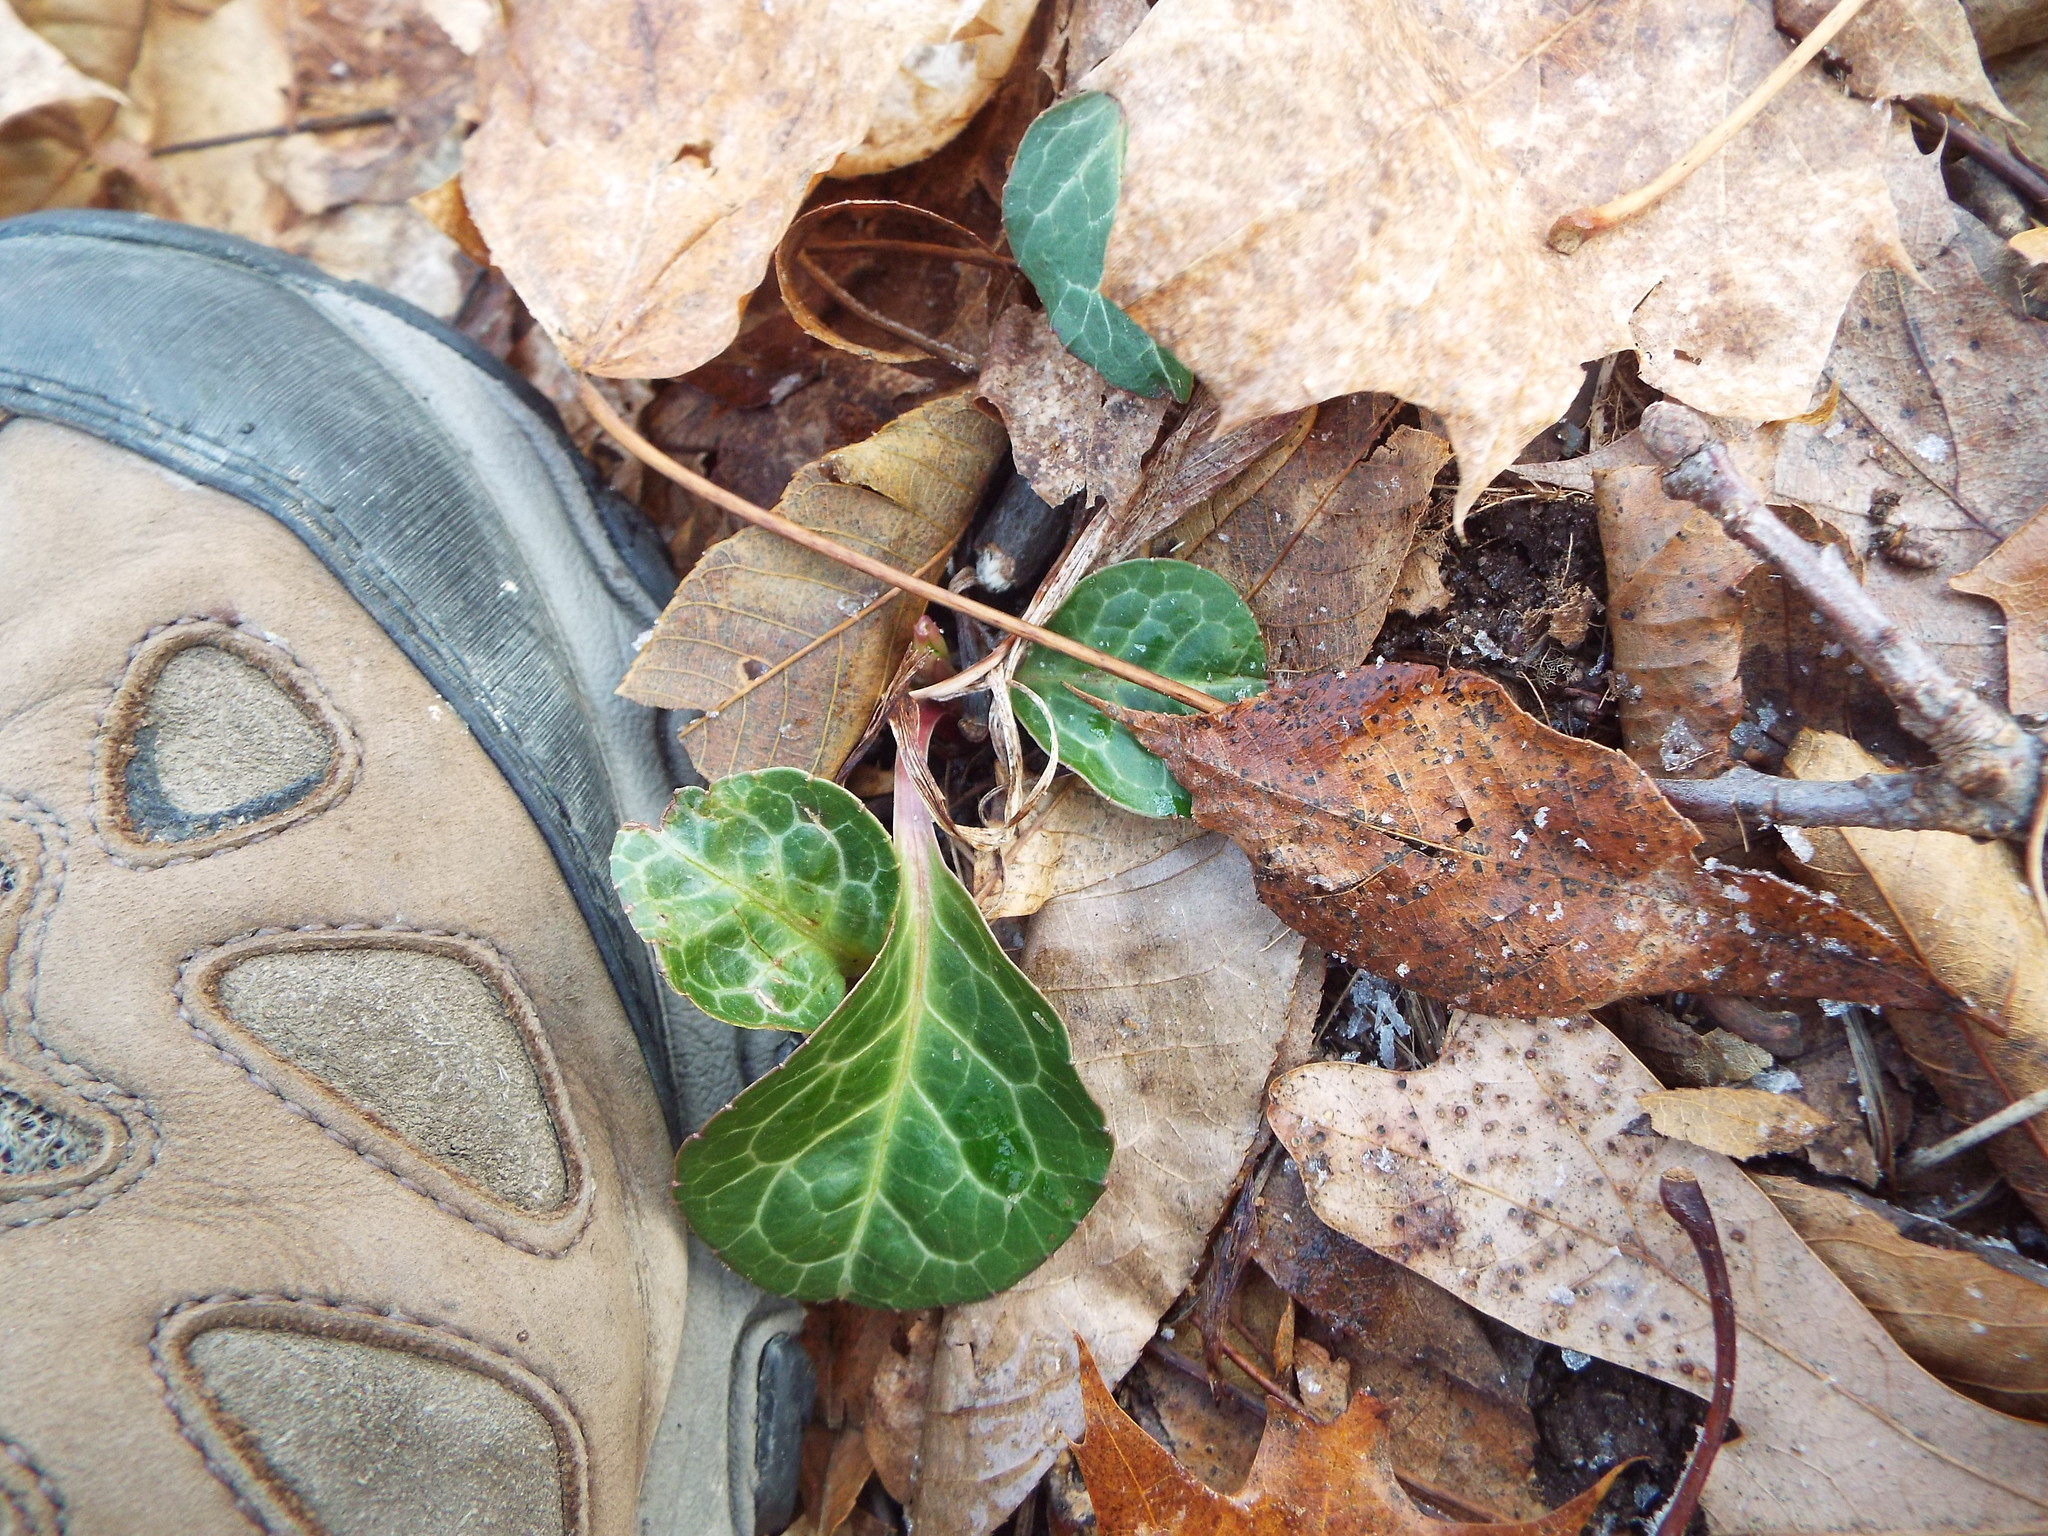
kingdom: Plantae
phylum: Tracheophyta
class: Magnoliopsida
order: Ericales
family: Ericaceae
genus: Pyrola
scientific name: Pyrola americana
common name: American wintergreen
